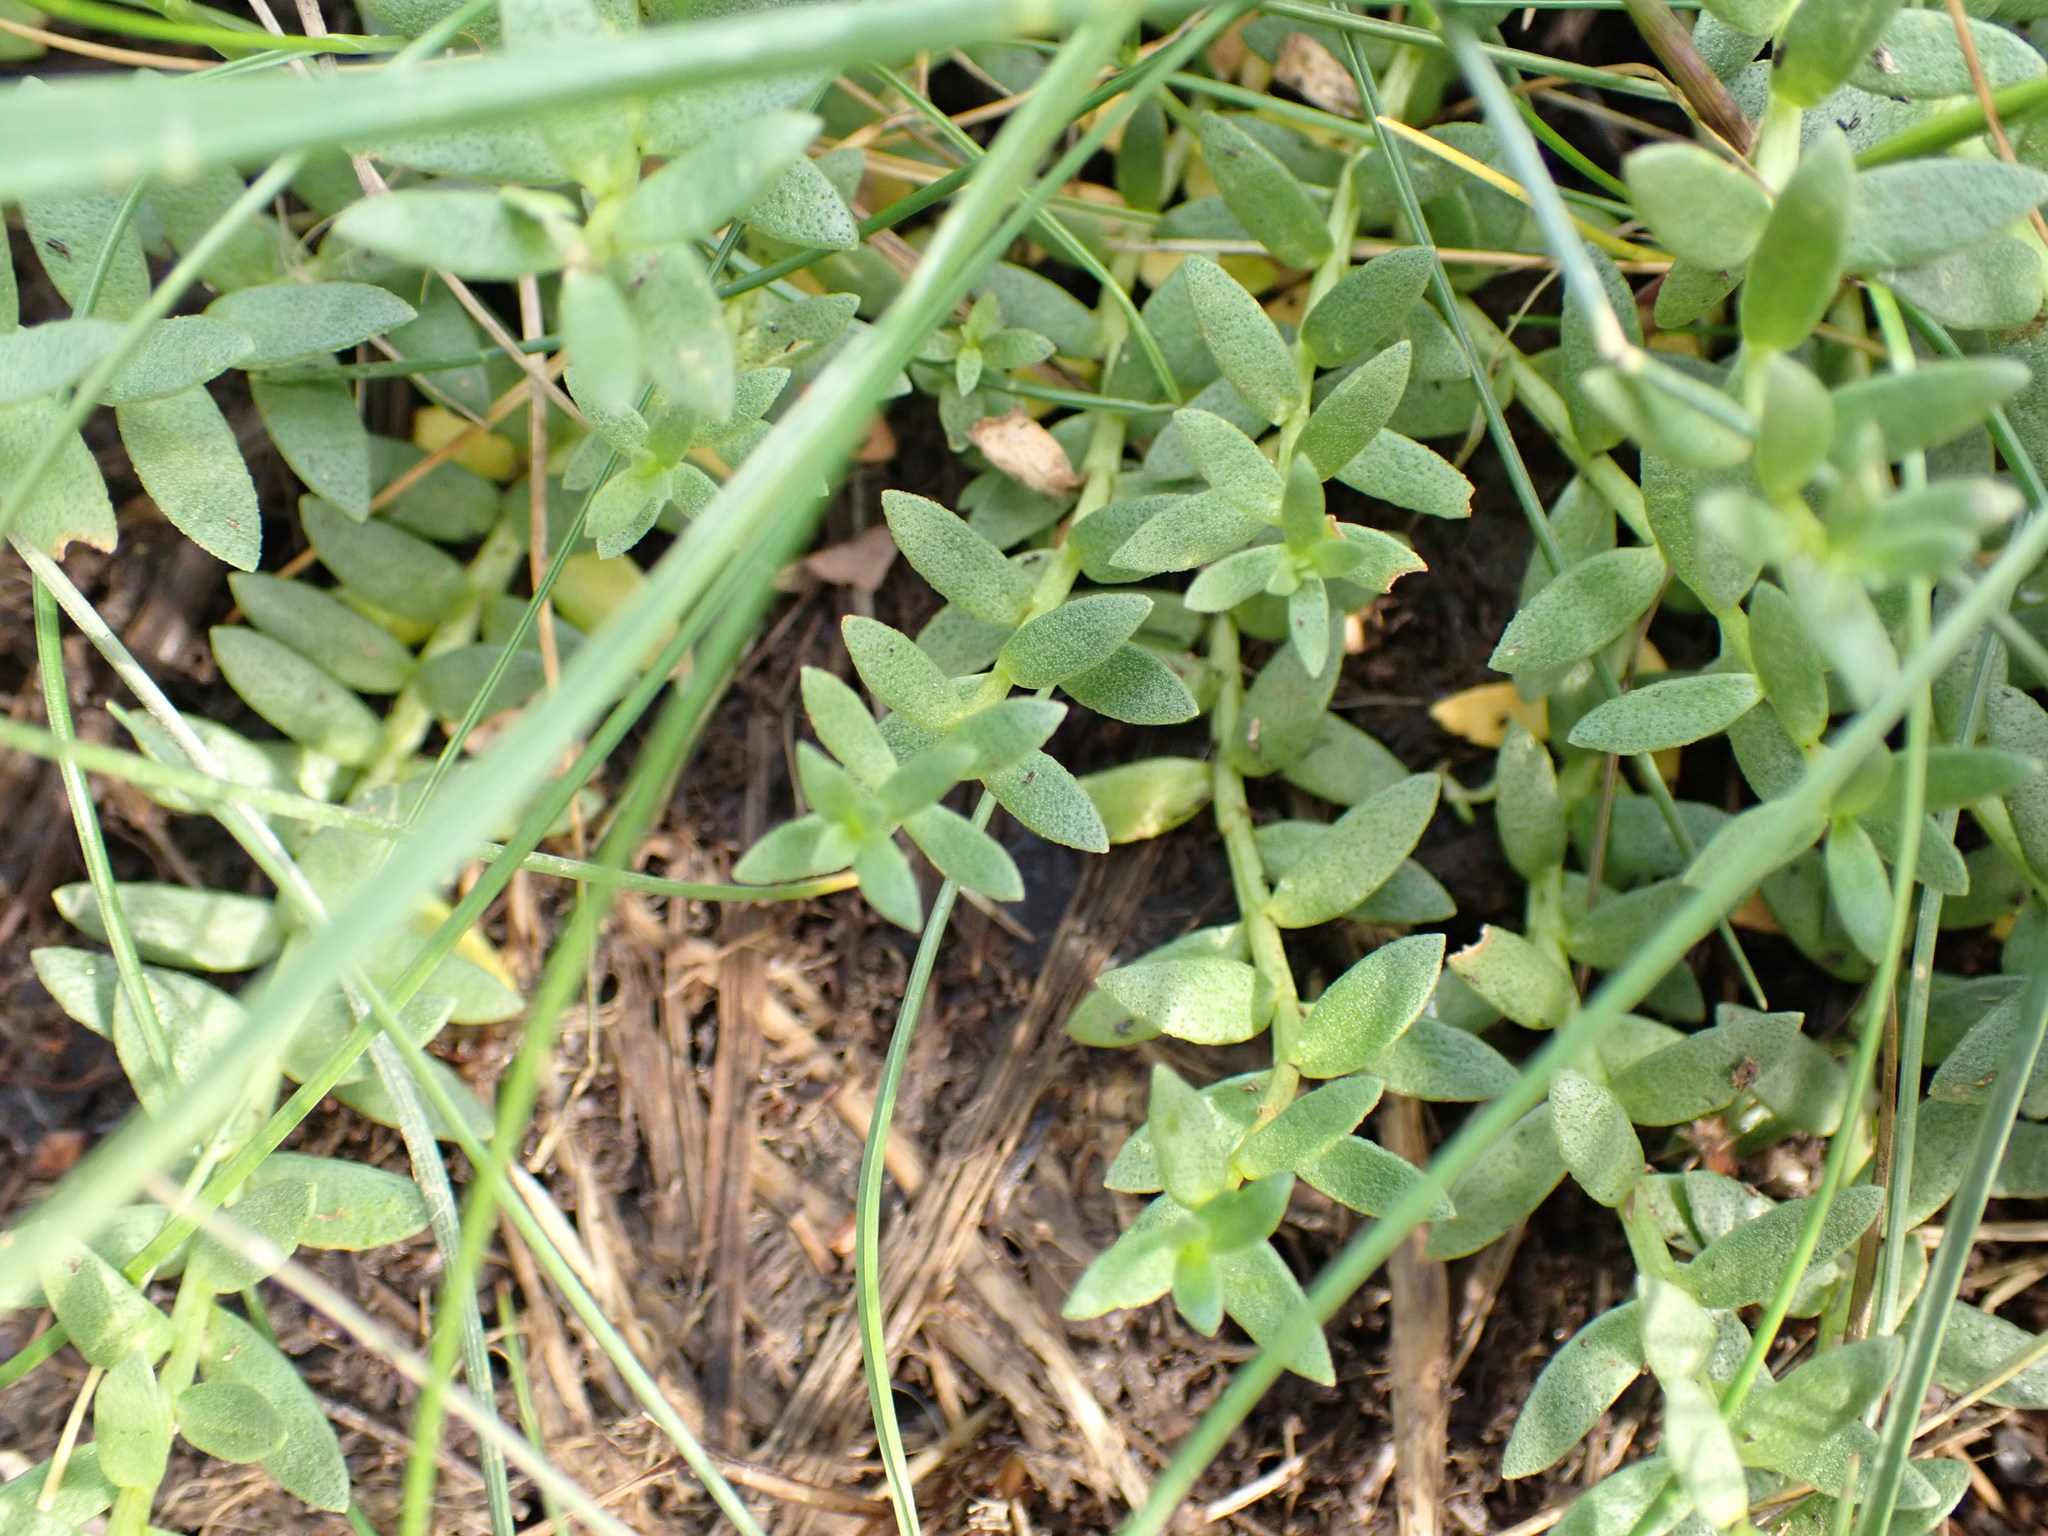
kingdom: Plantae
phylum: Tracheophyta
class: Magnoliopsida
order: Ericales
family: Primulaceae
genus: Lysimachia
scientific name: Lysimachia maritima
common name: Sea milkwort
